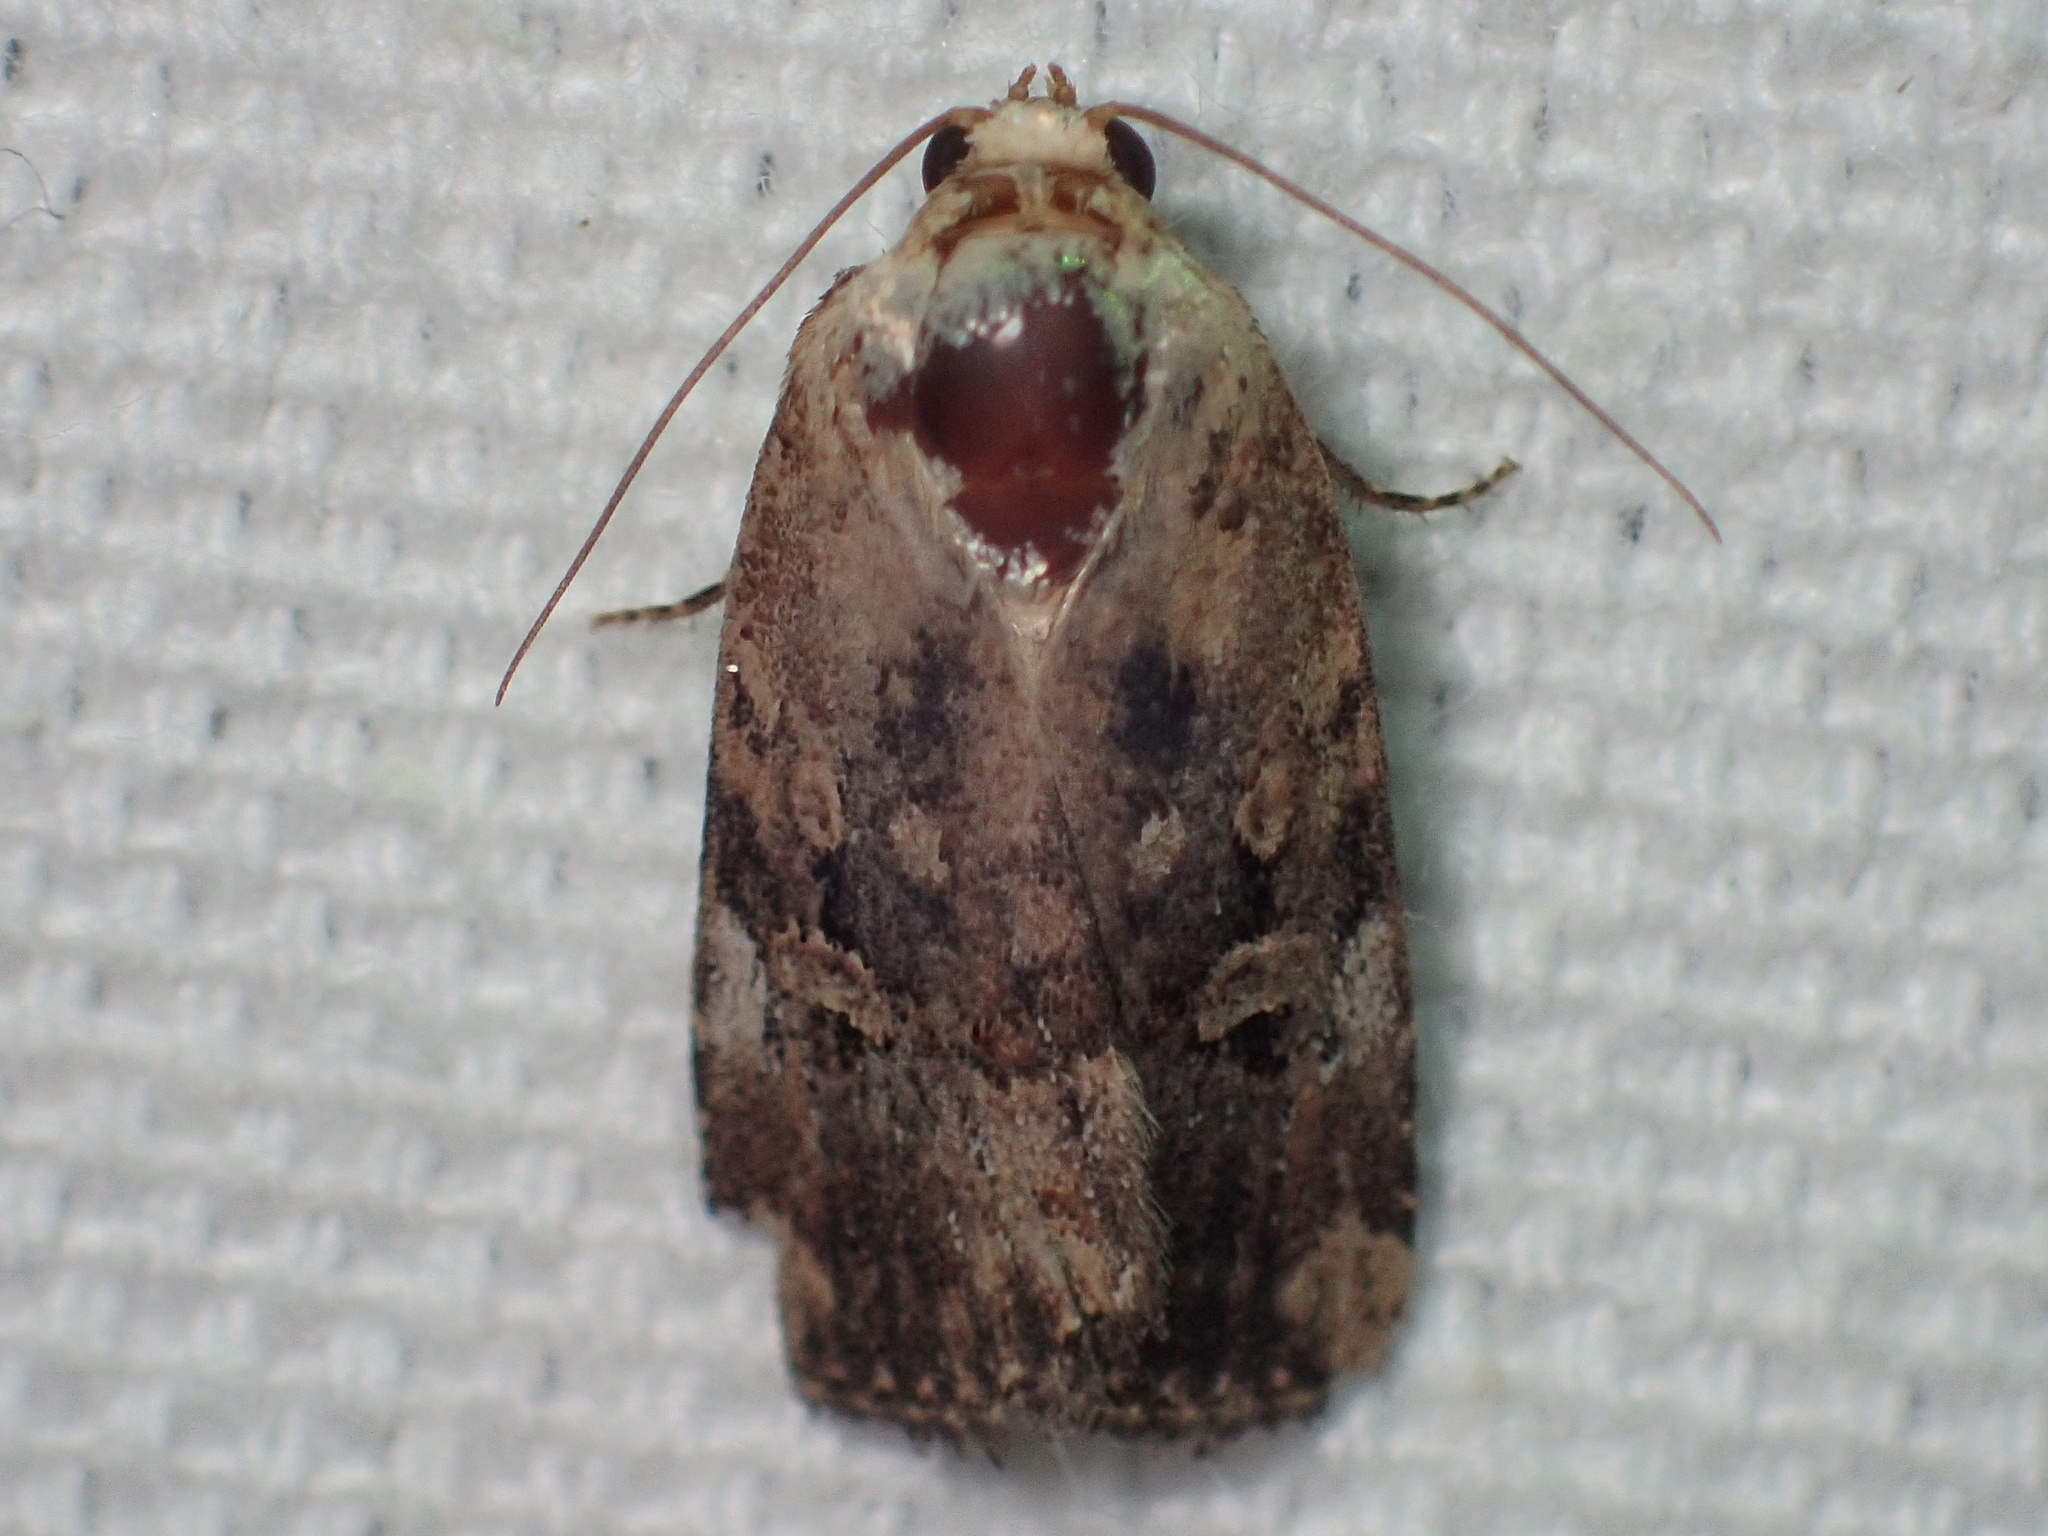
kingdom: Animalia
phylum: Arthropoda
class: Insecta
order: Lepidoptera
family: Noctuidae
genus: Elaphria
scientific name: Elaphria chalcedonia
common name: Chalcedony midget
